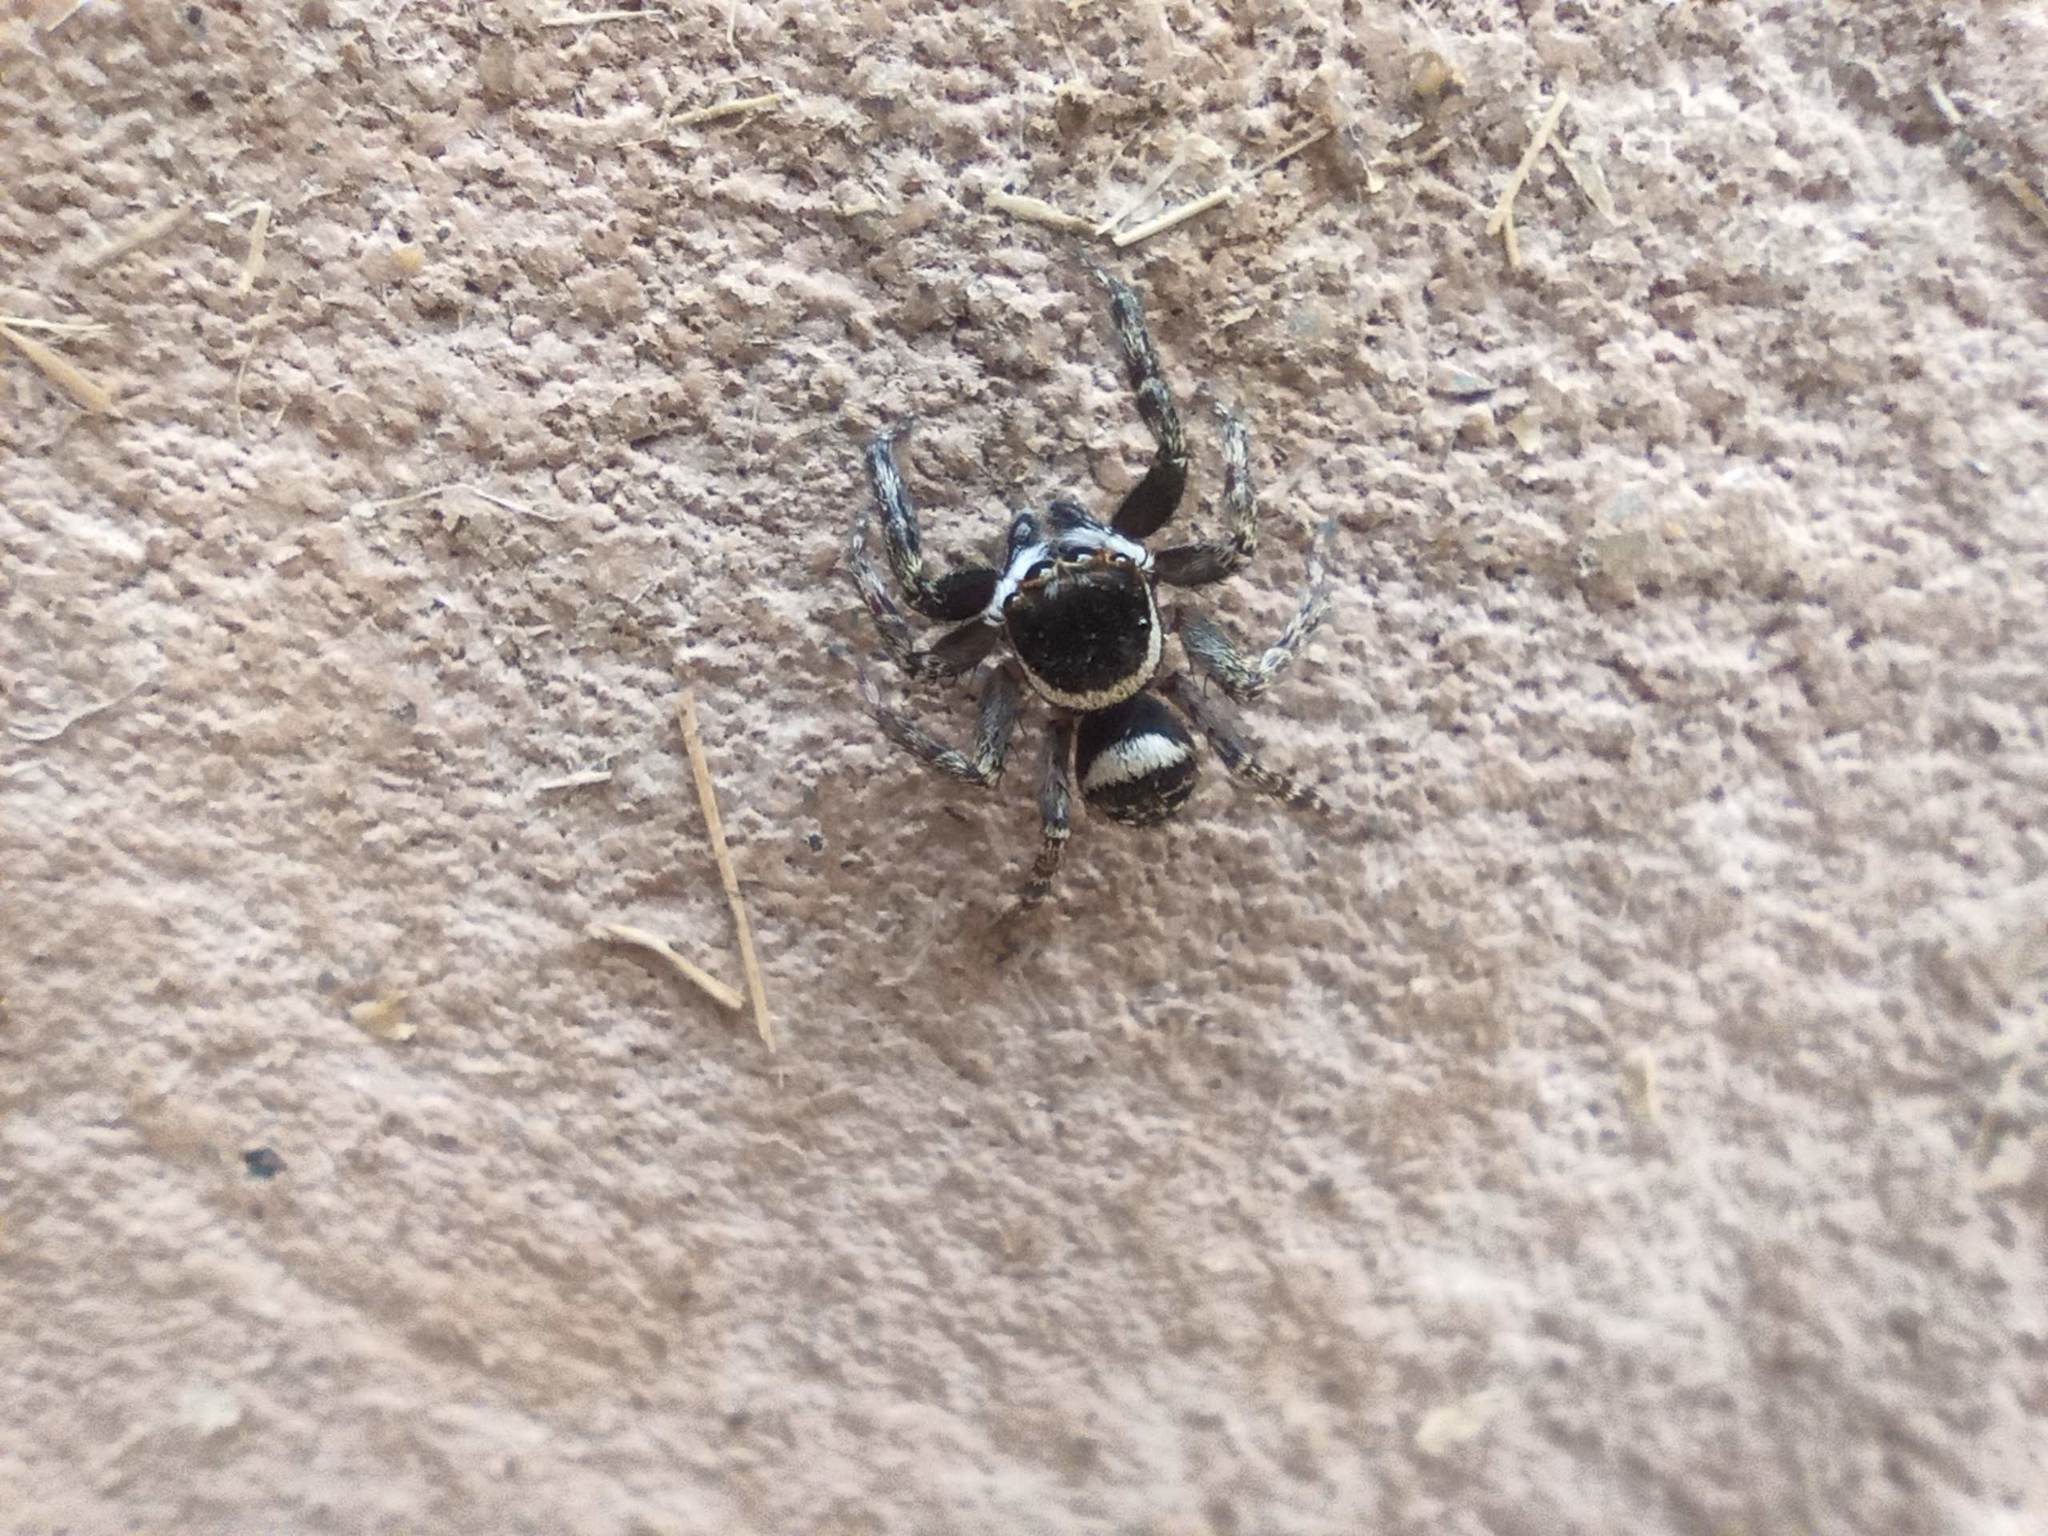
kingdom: Animalia
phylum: Arthropoda
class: Arachnida
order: Araneae
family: Salticidae
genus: Hasarius
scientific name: Hasarius adansoni
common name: Jumping spider
